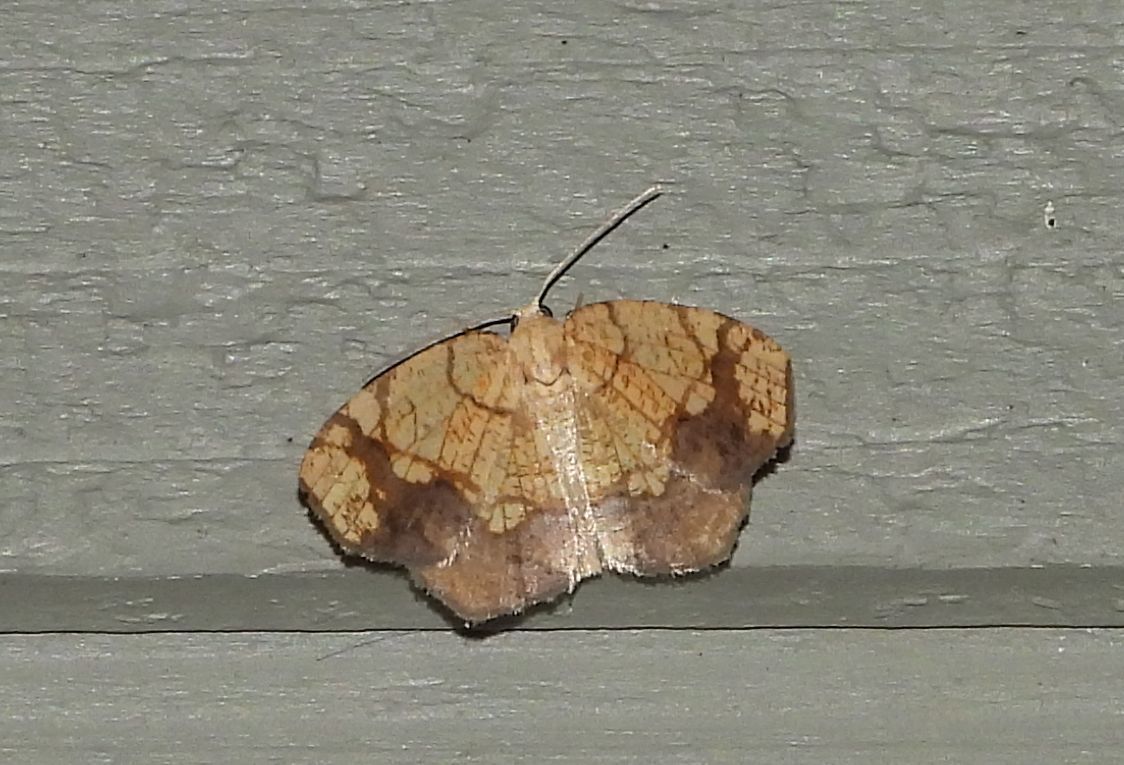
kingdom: Animalia
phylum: Arthropoda
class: Insecta
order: Lepidoptera
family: Geometridae
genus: Nematocampa
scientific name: Nematocampa resistaria
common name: Horned spanworm moth
